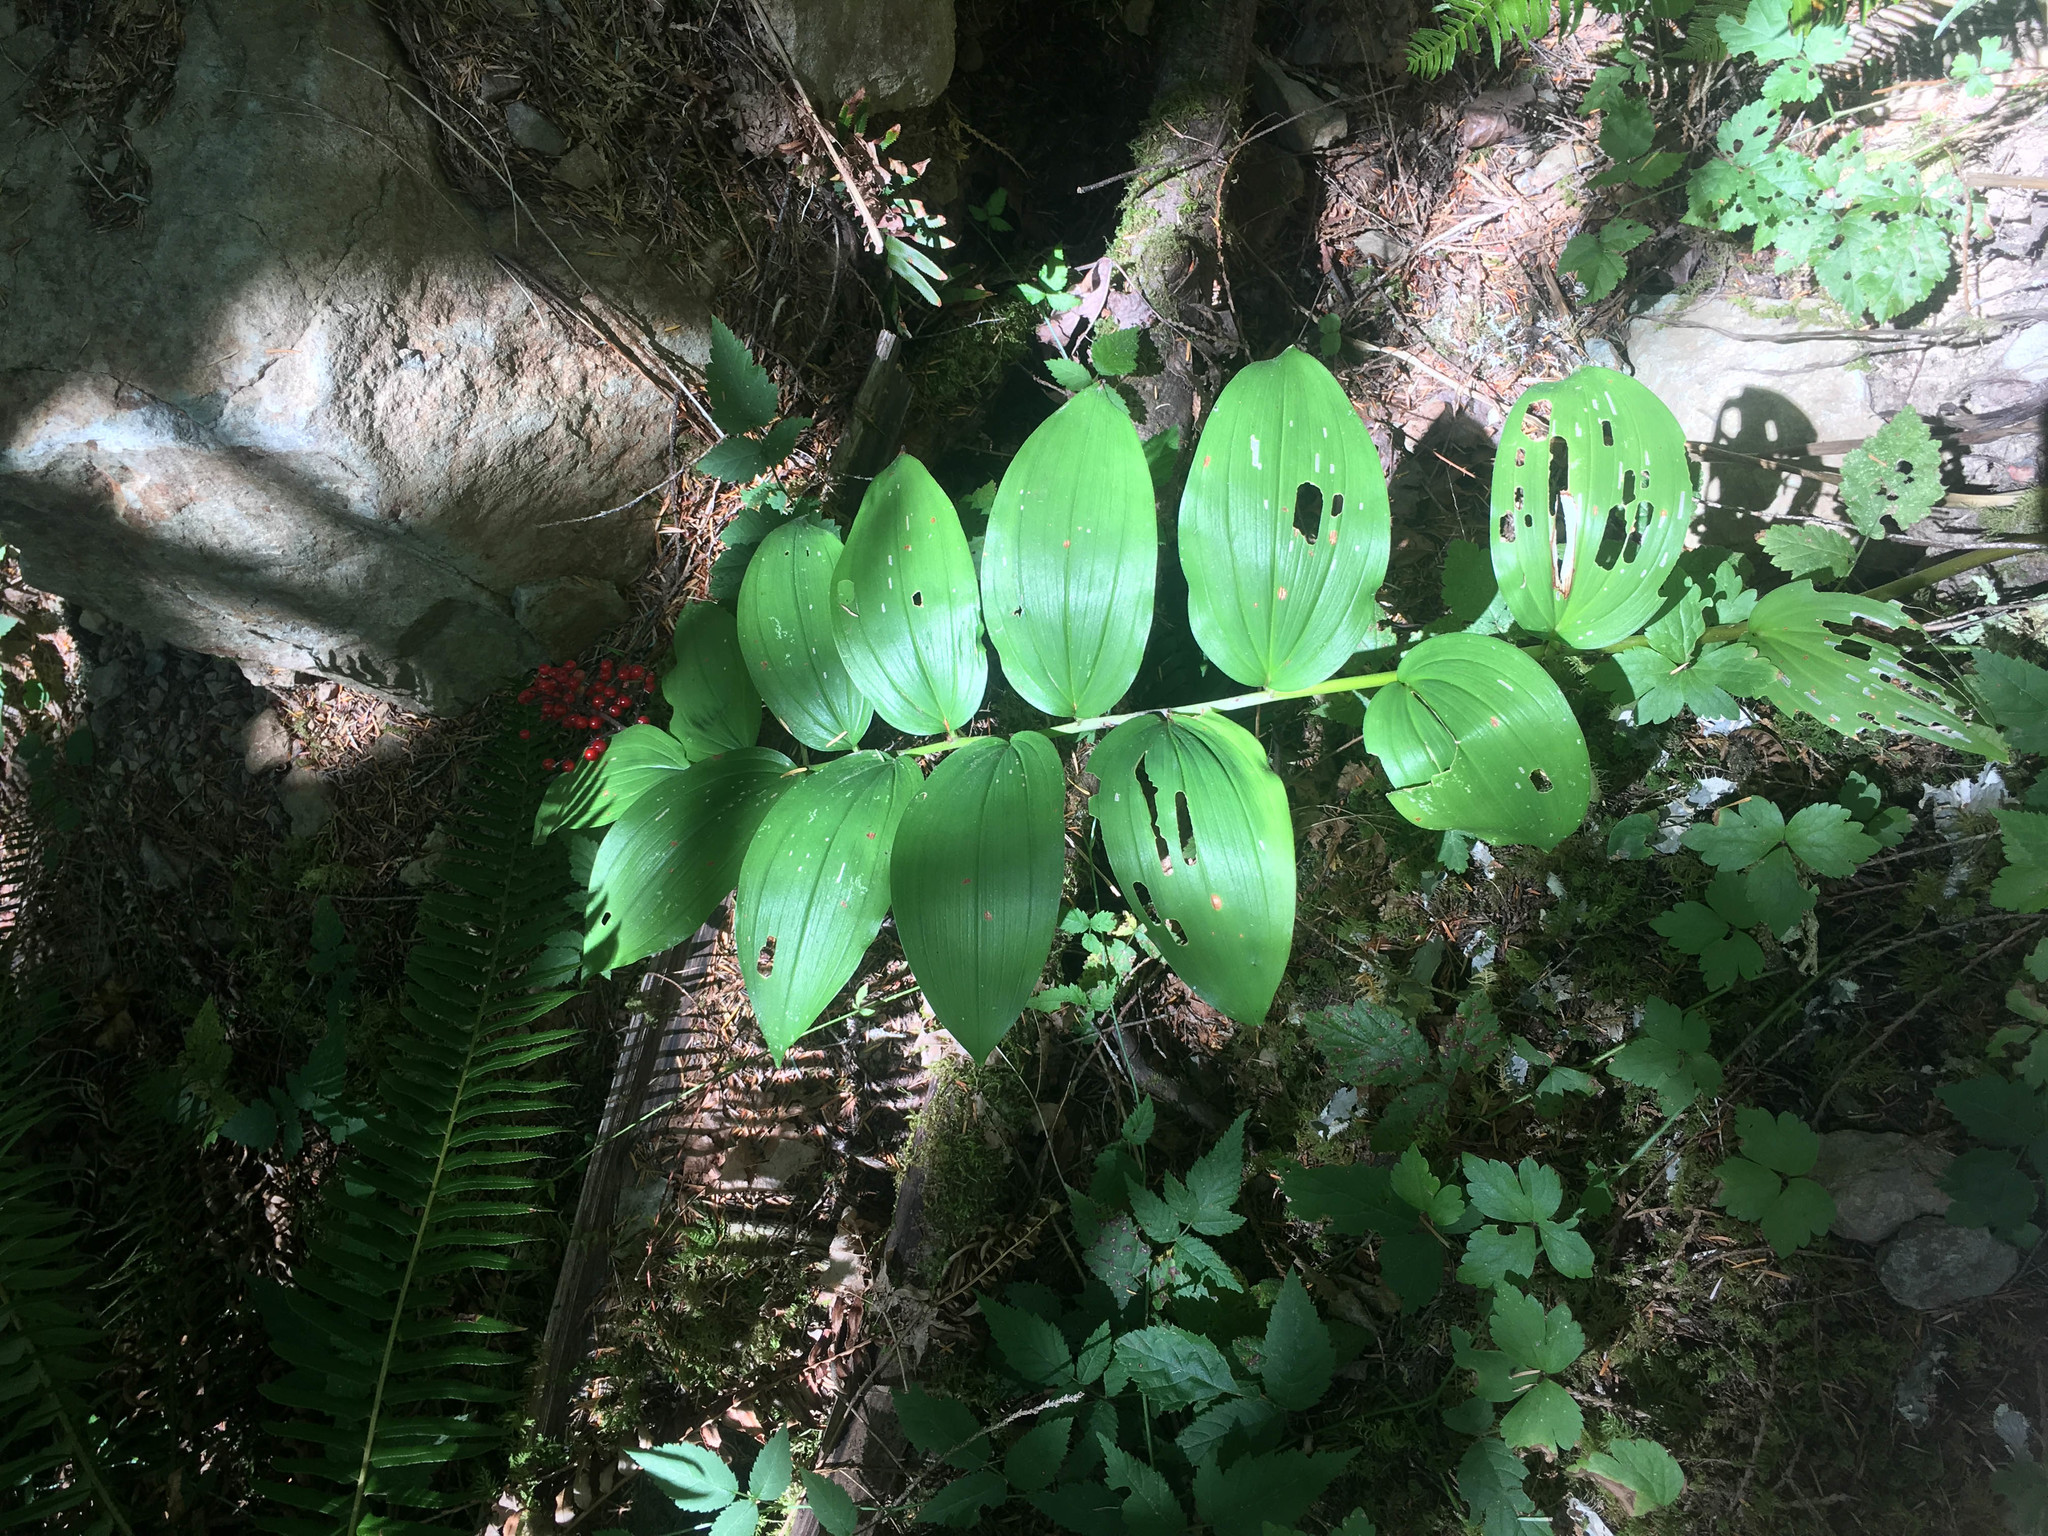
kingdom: Plantae
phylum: Tracheophyta
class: Liliopsida
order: Asparagales
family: Asparagaceae
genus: Maianthemum
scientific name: Maianthemum racemosum
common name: False spikenard
